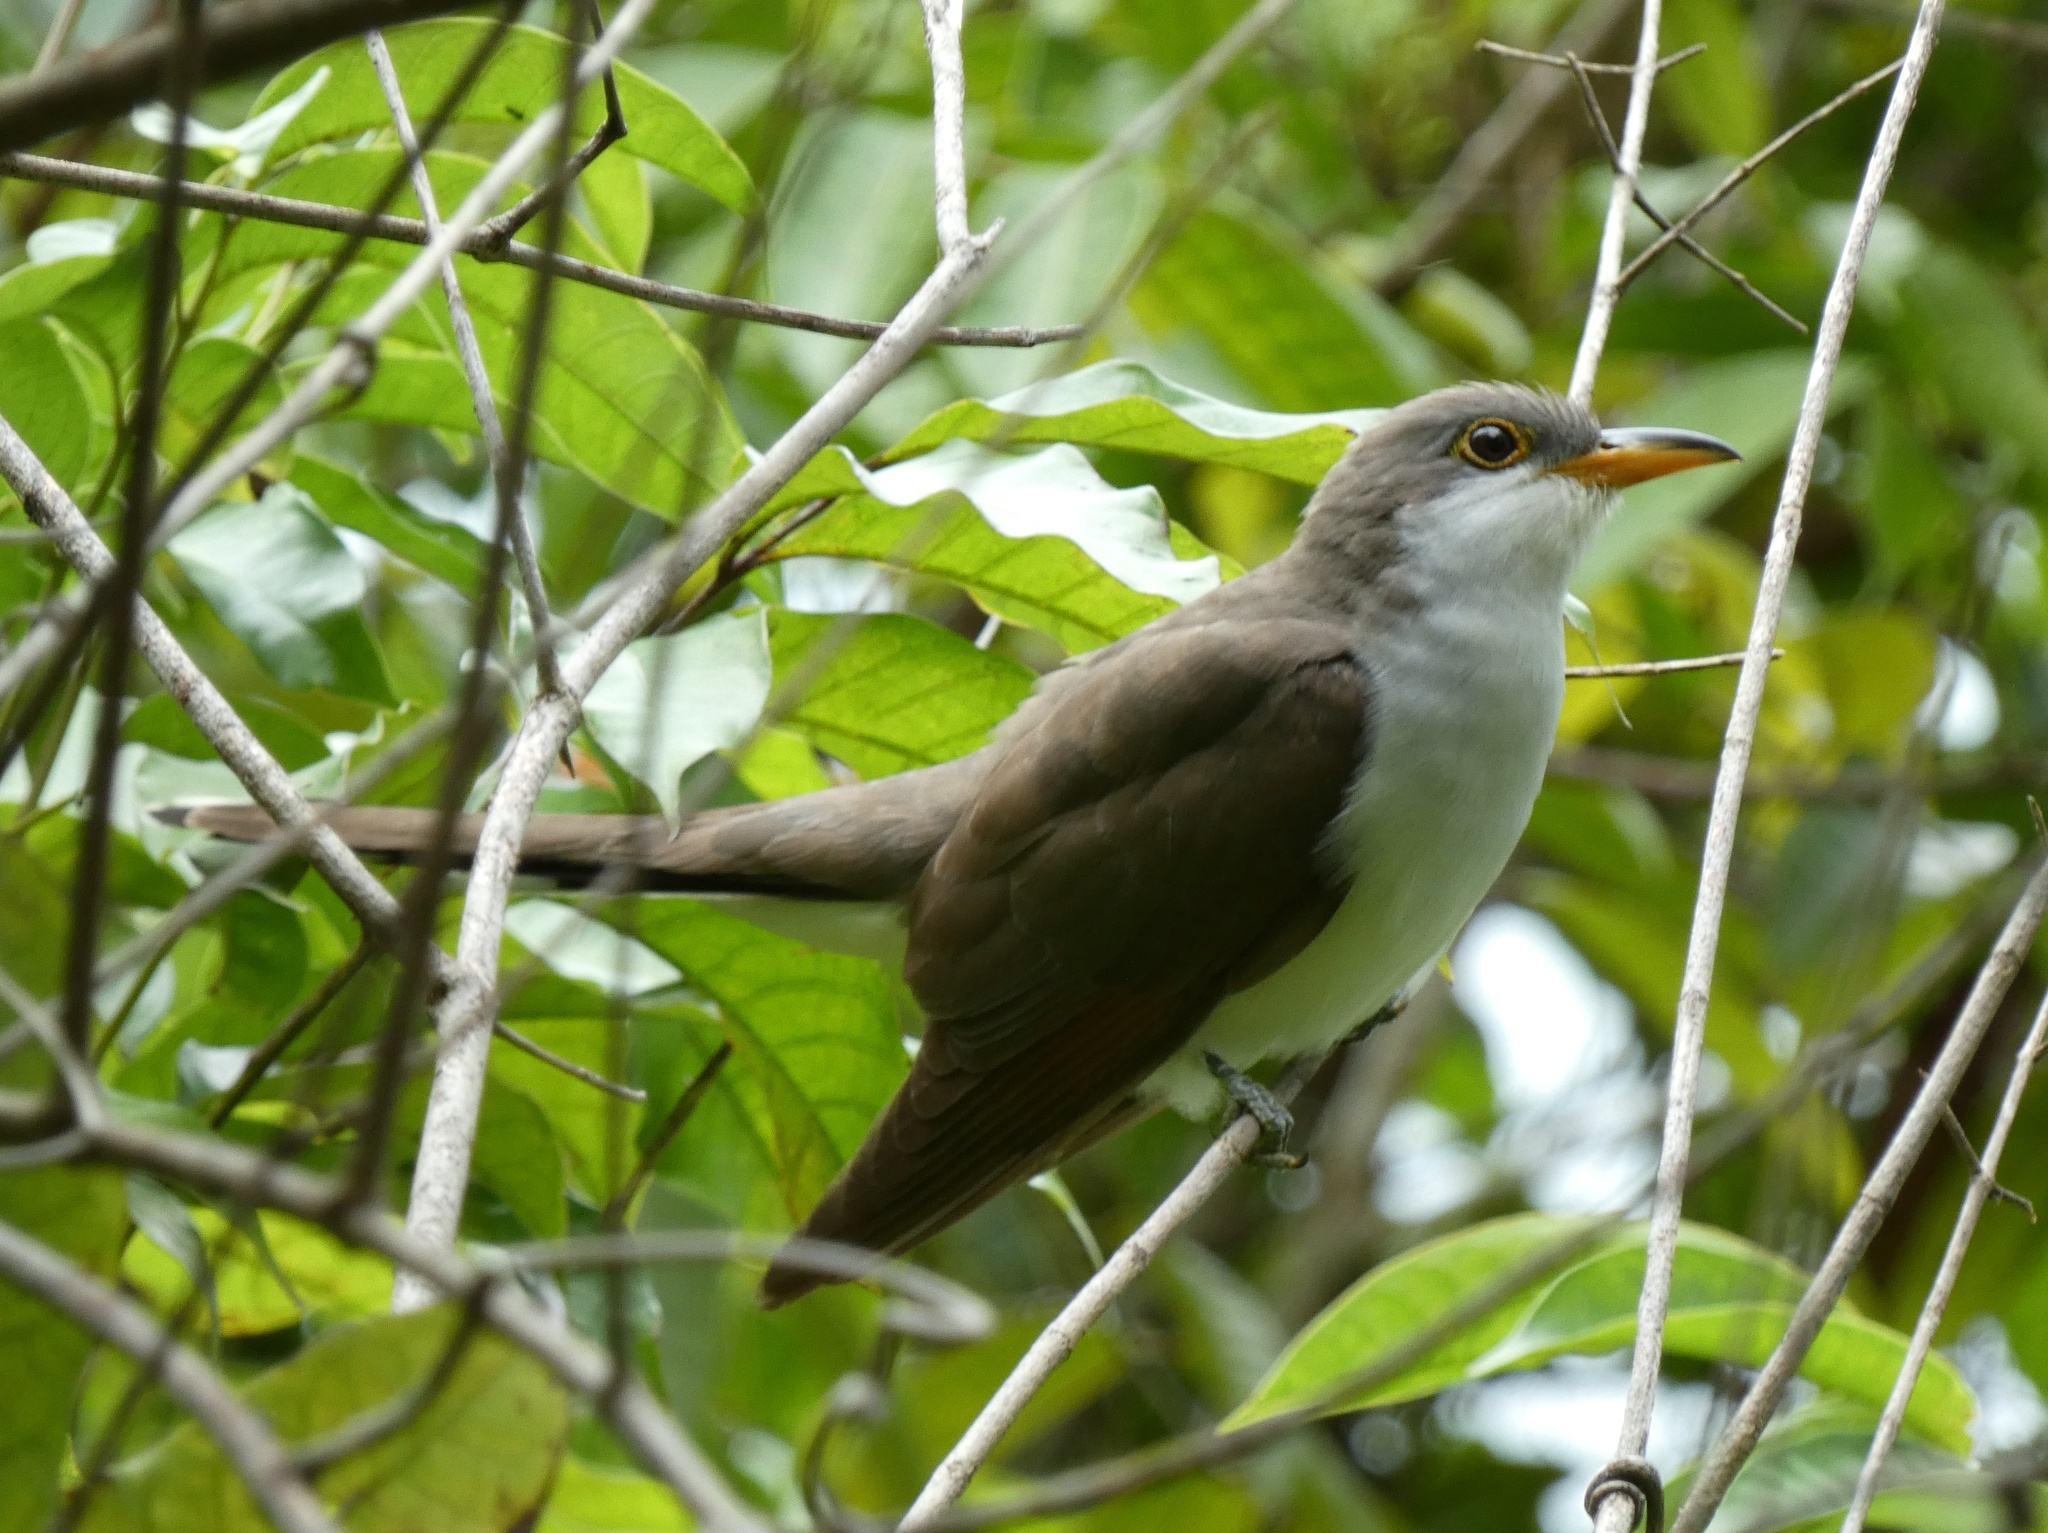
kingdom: Animalia
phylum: Chordata
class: Aves
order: Cuculiformes
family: Cuculidae
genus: Coccyzus
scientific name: Coccyzus americanus
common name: Yellow-billed cuckoo
